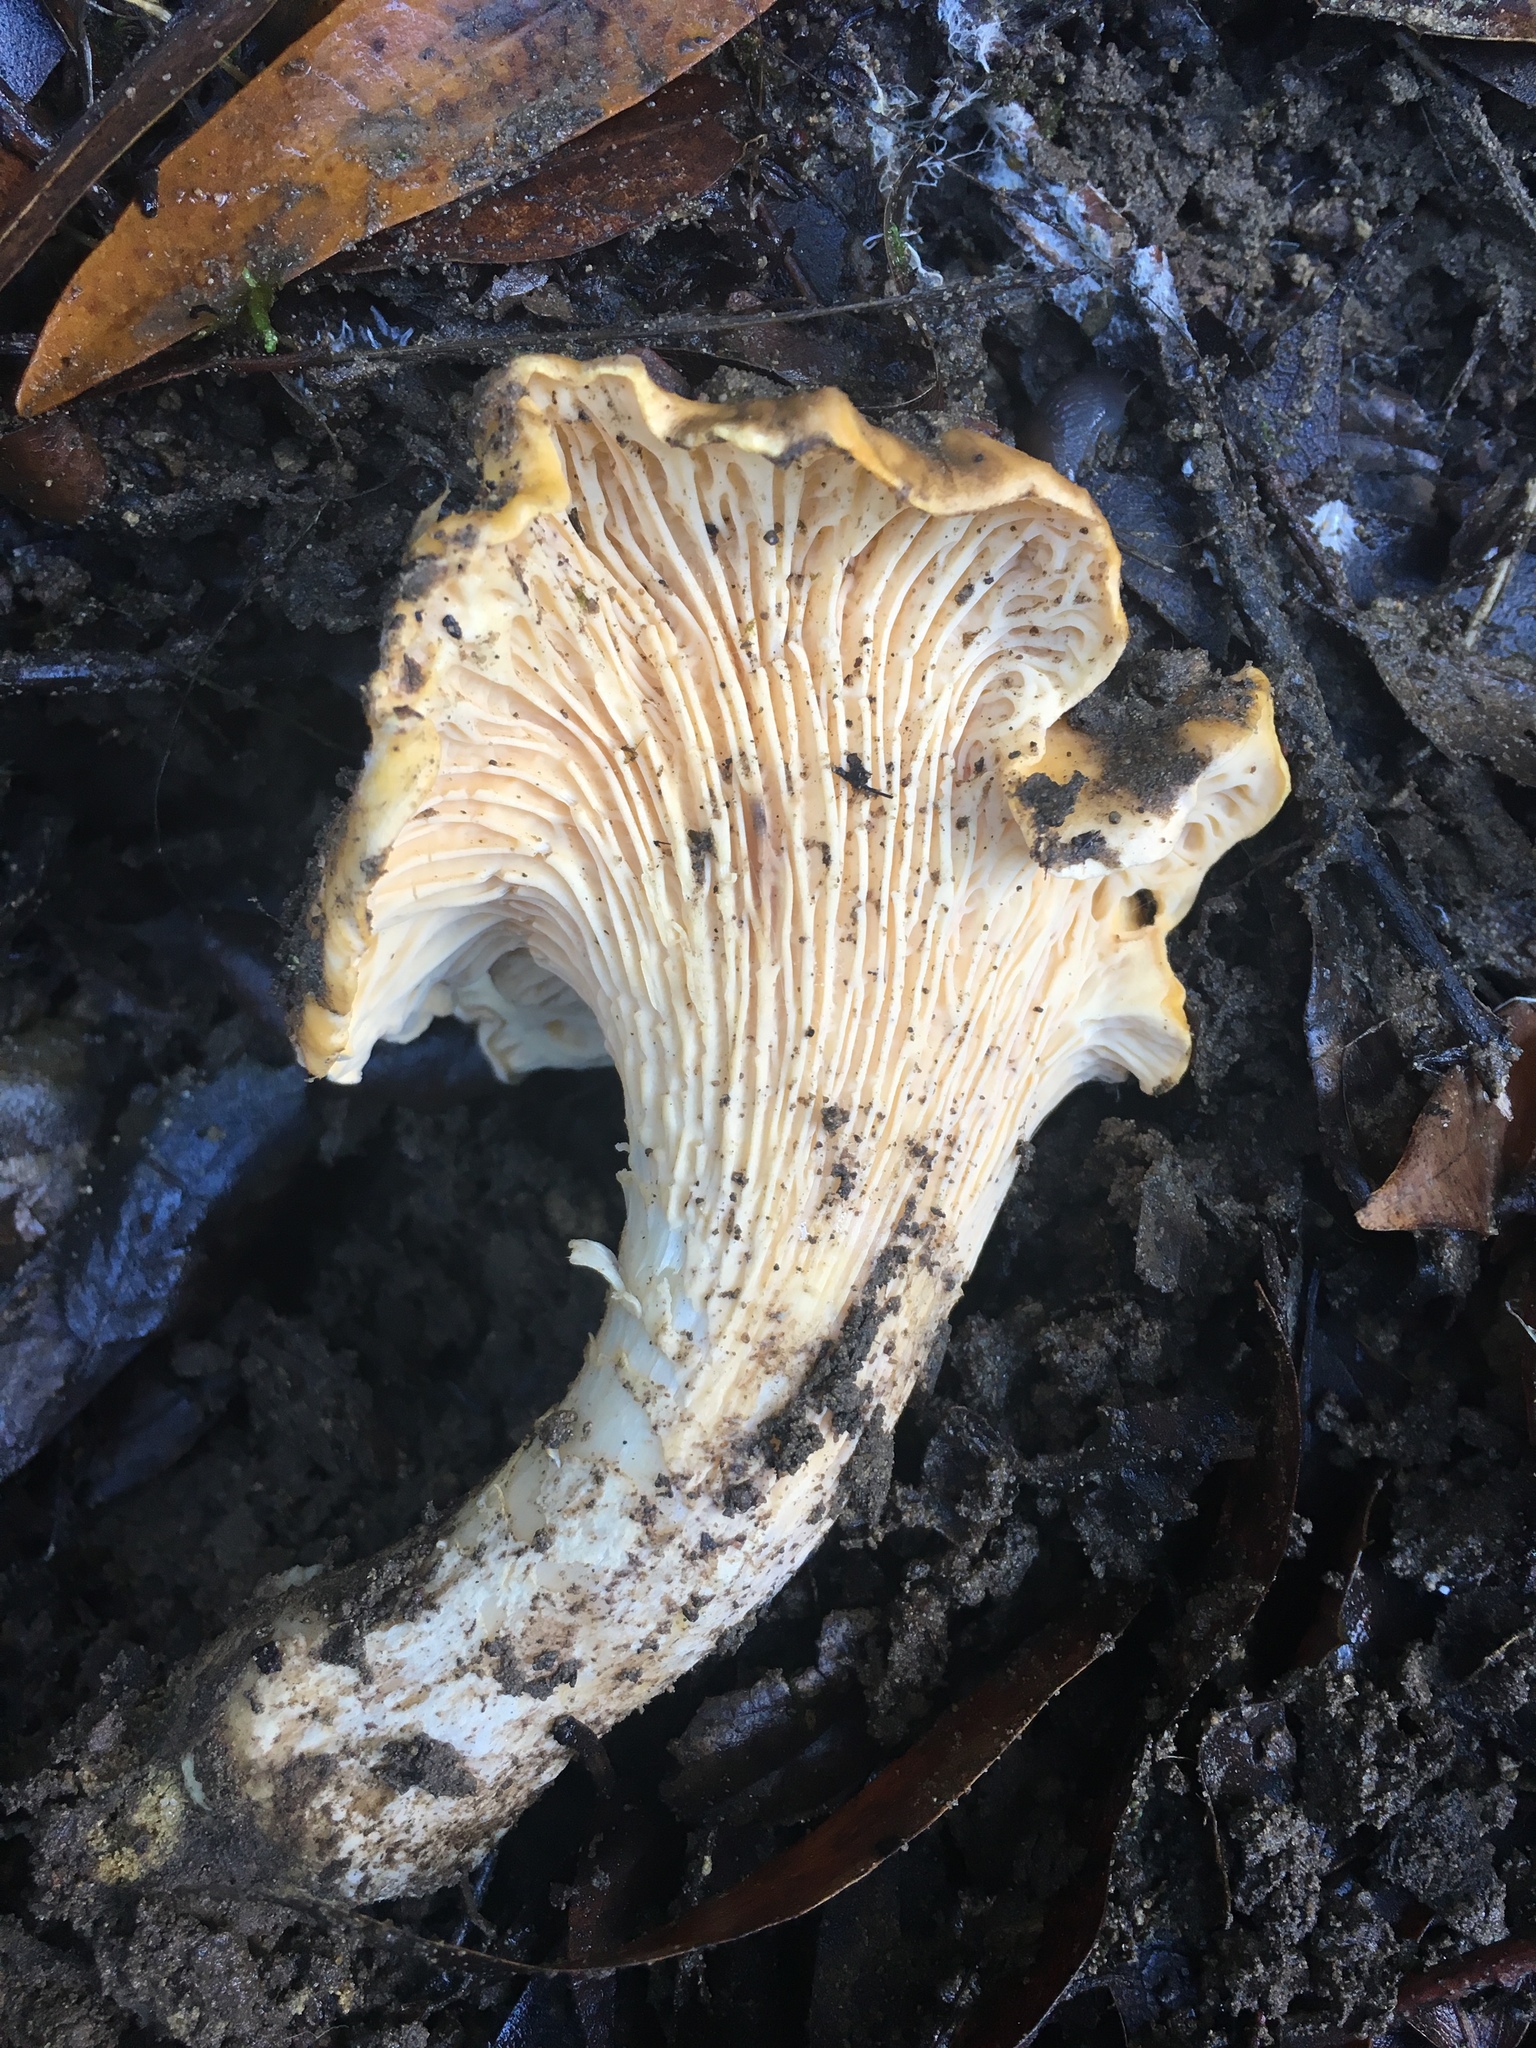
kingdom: Fungi
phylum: Basidiomycota
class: Agaricomycetes
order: Cantharellales
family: Hydnaceae
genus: Cantharellus
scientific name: Cantharellus californicus
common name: California golden chanterelle
